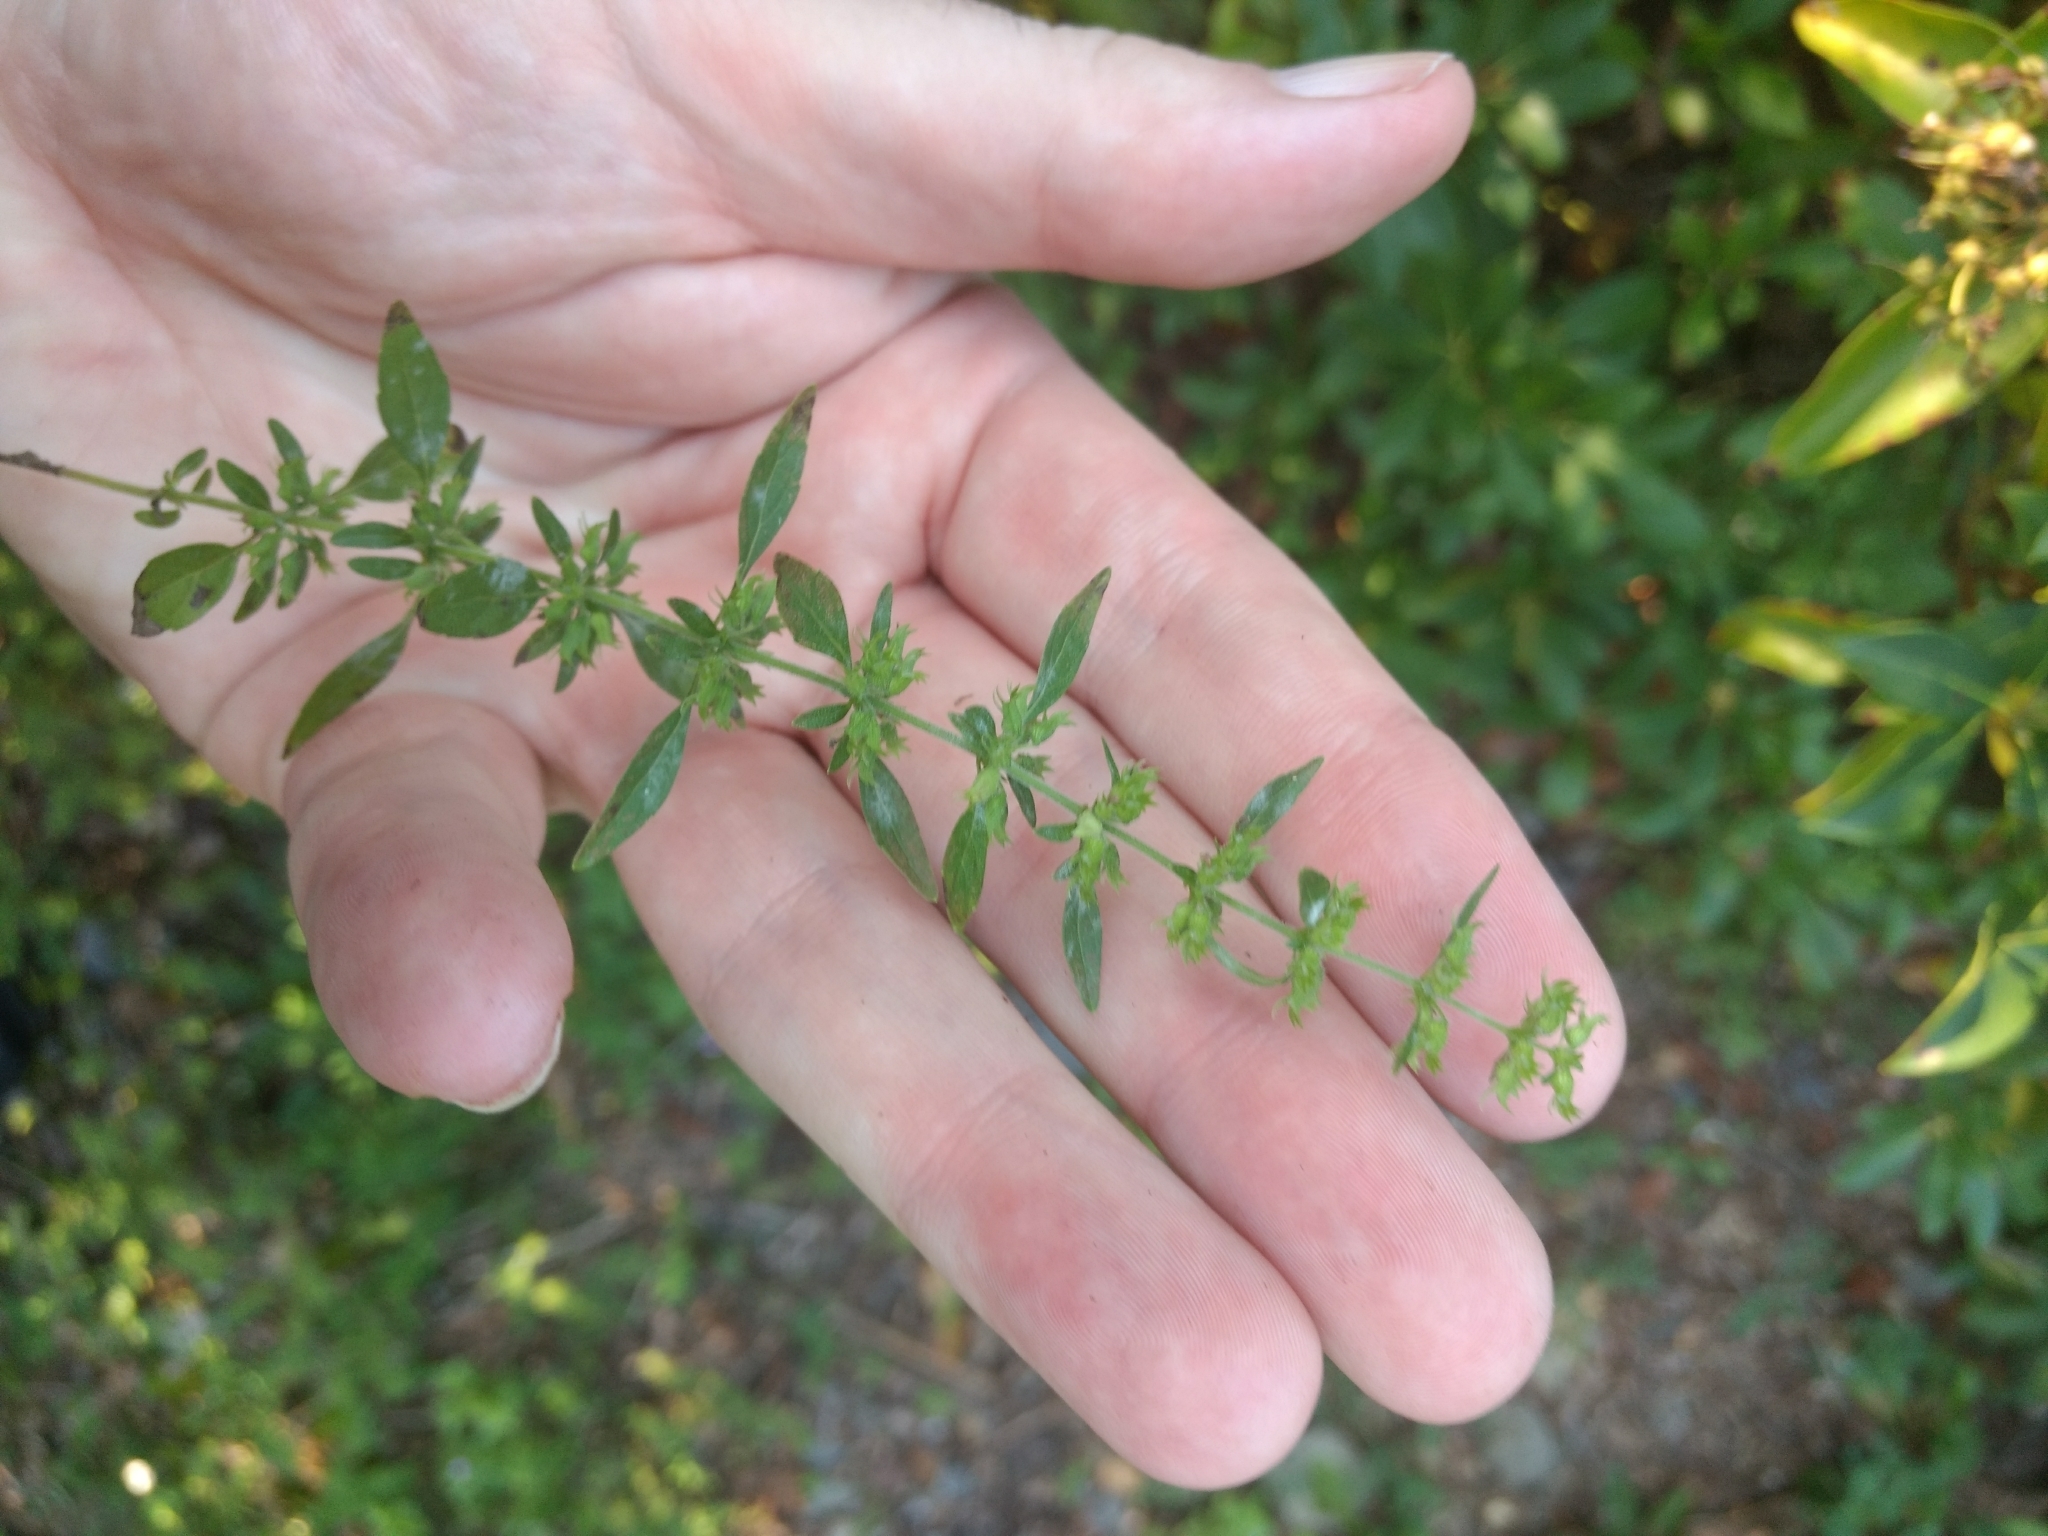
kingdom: Plantae
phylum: Tracheophyta
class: Magnoliopsida
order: Lamiales
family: Lamiaceae
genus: Hedeoma
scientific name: Hedeoma pulegioides
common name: American false pennyroyal
